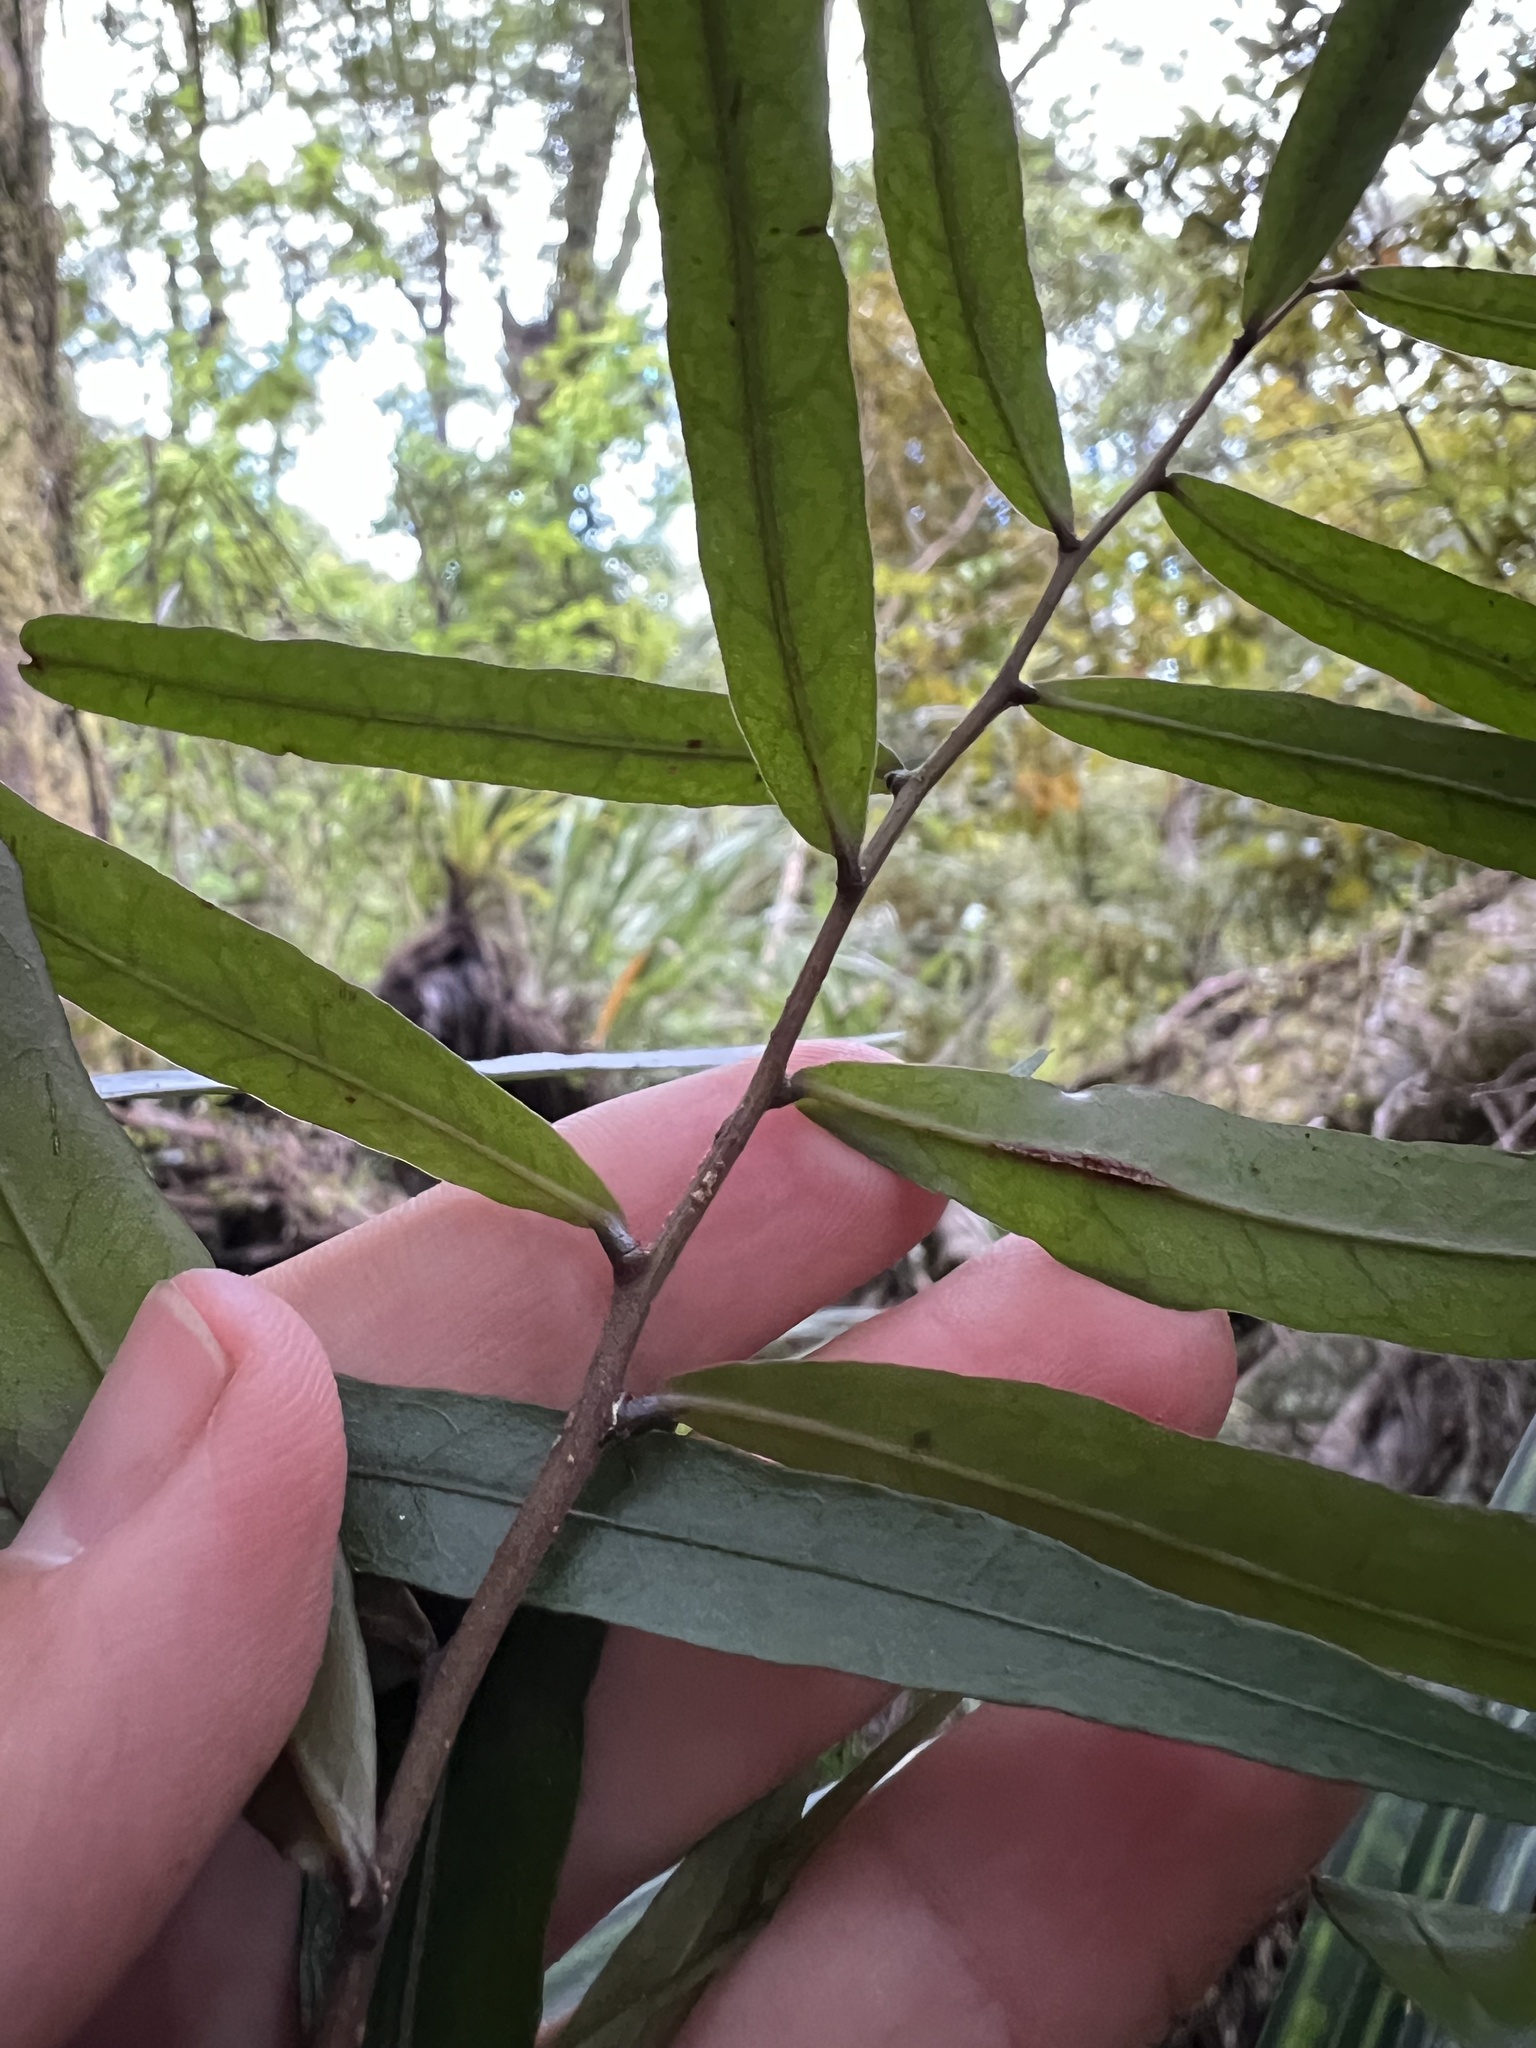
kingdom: Plantae
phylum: Tracheophyta
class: Magnoliopsida
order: Santalales
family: Nanodeaceae
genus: Mida
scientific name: Mida salicifolia
